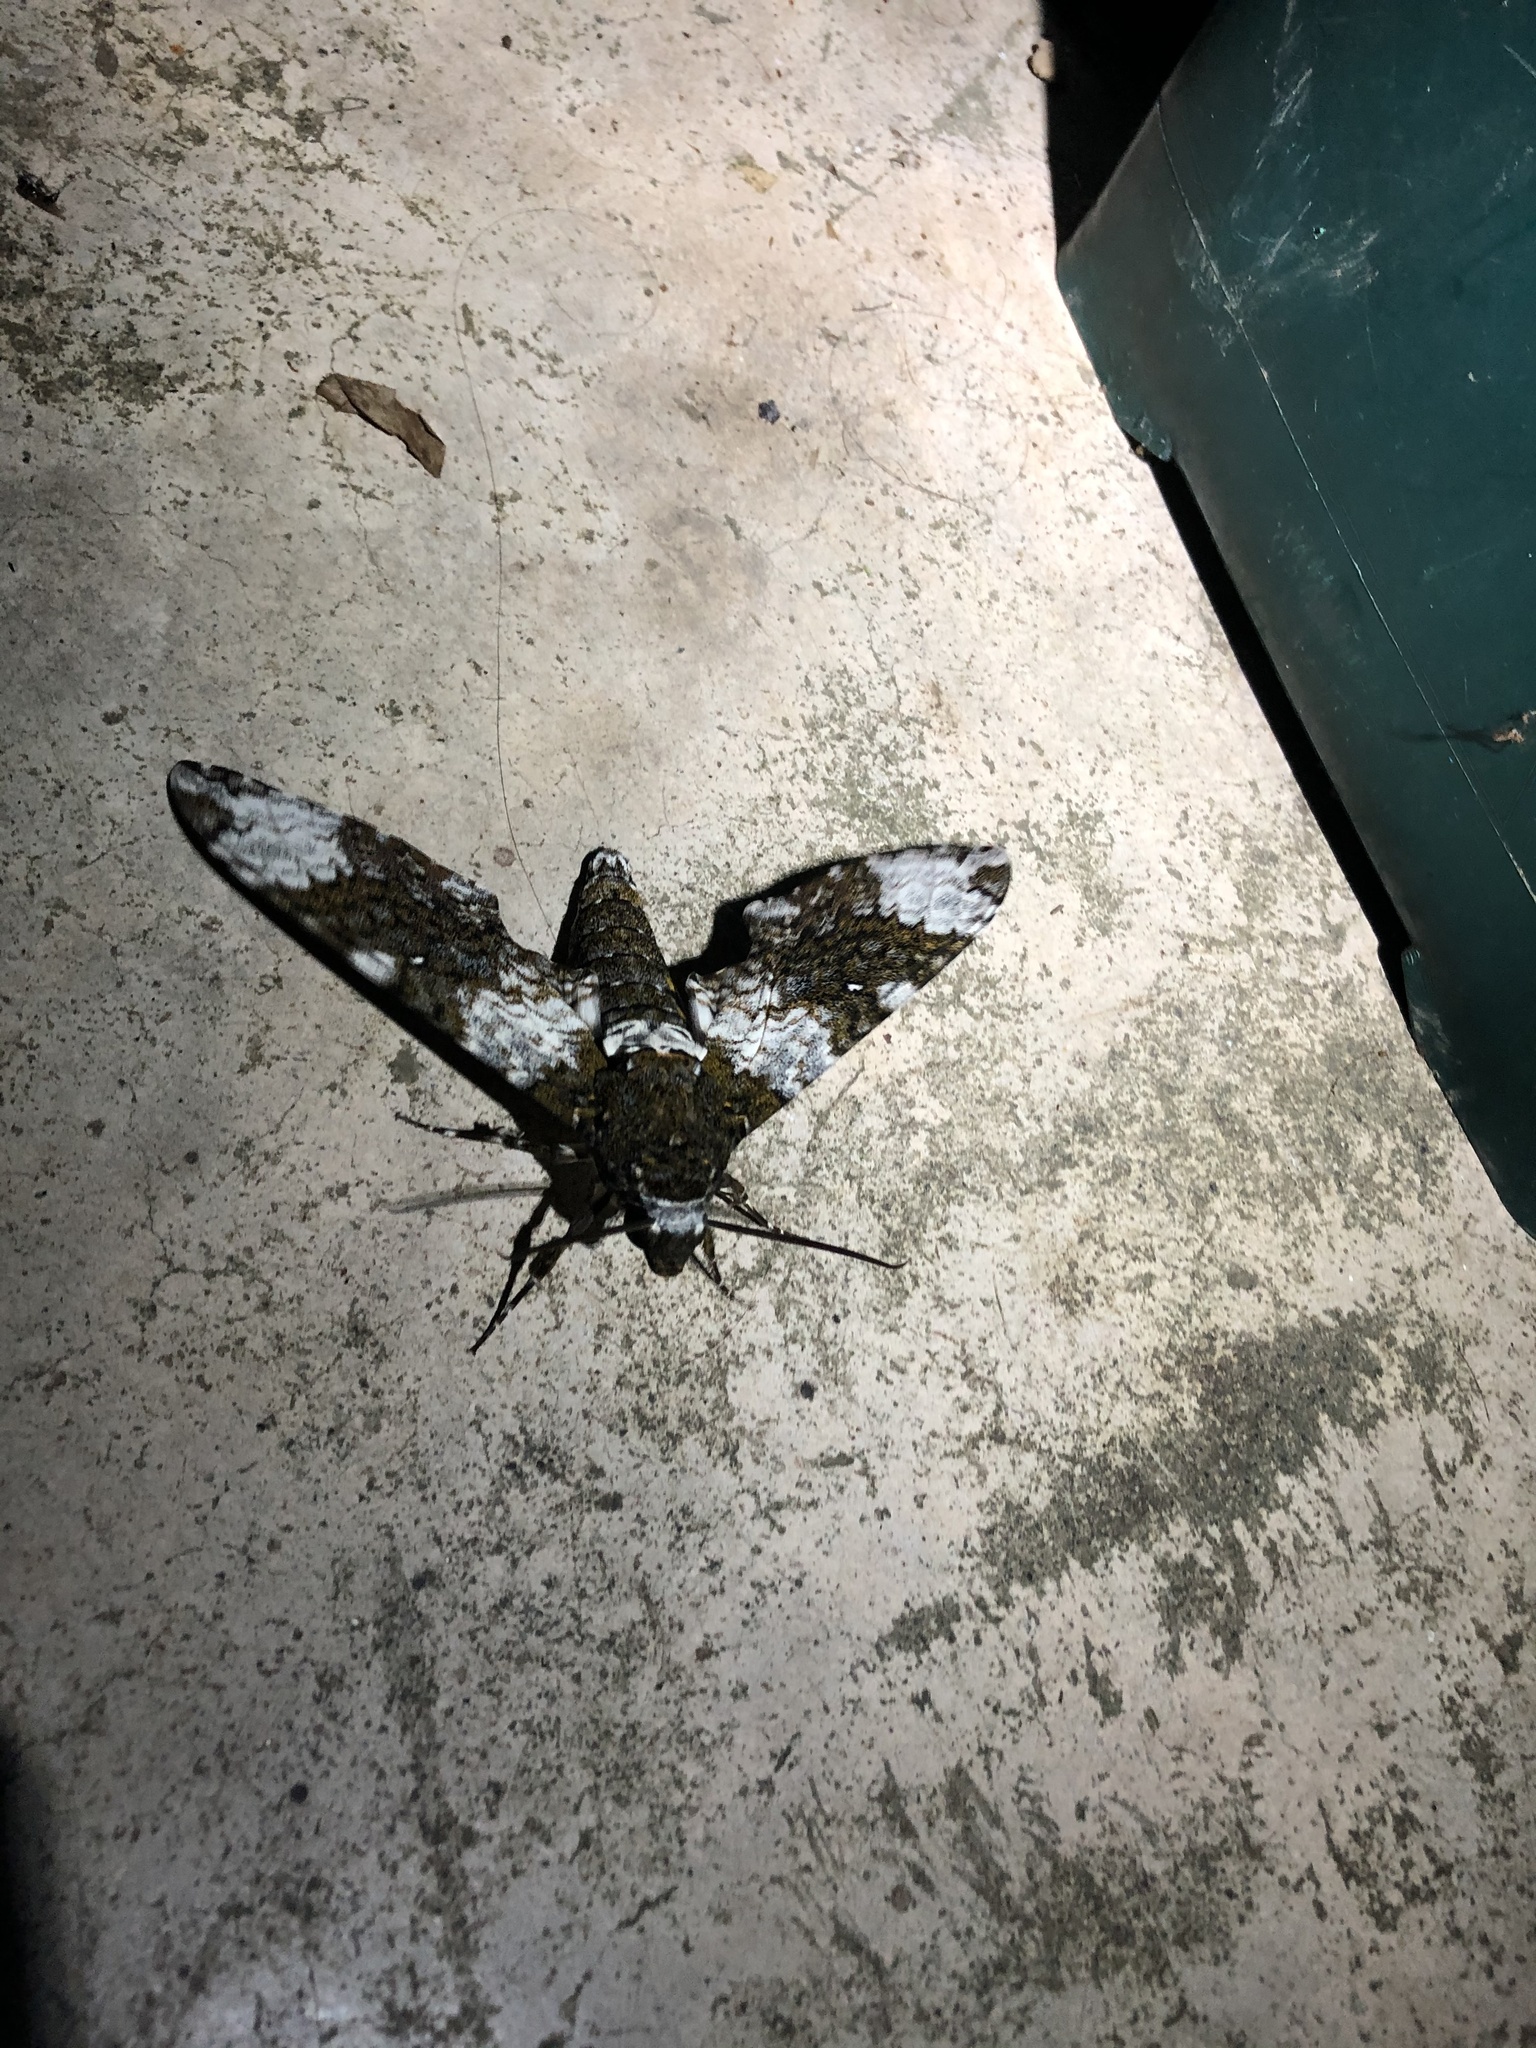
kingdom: Animalia
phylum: Arthropoda
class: Insecta
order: Lepidoptera
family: Sphingidae
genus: Manduca
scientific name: Manduca albiplaga
